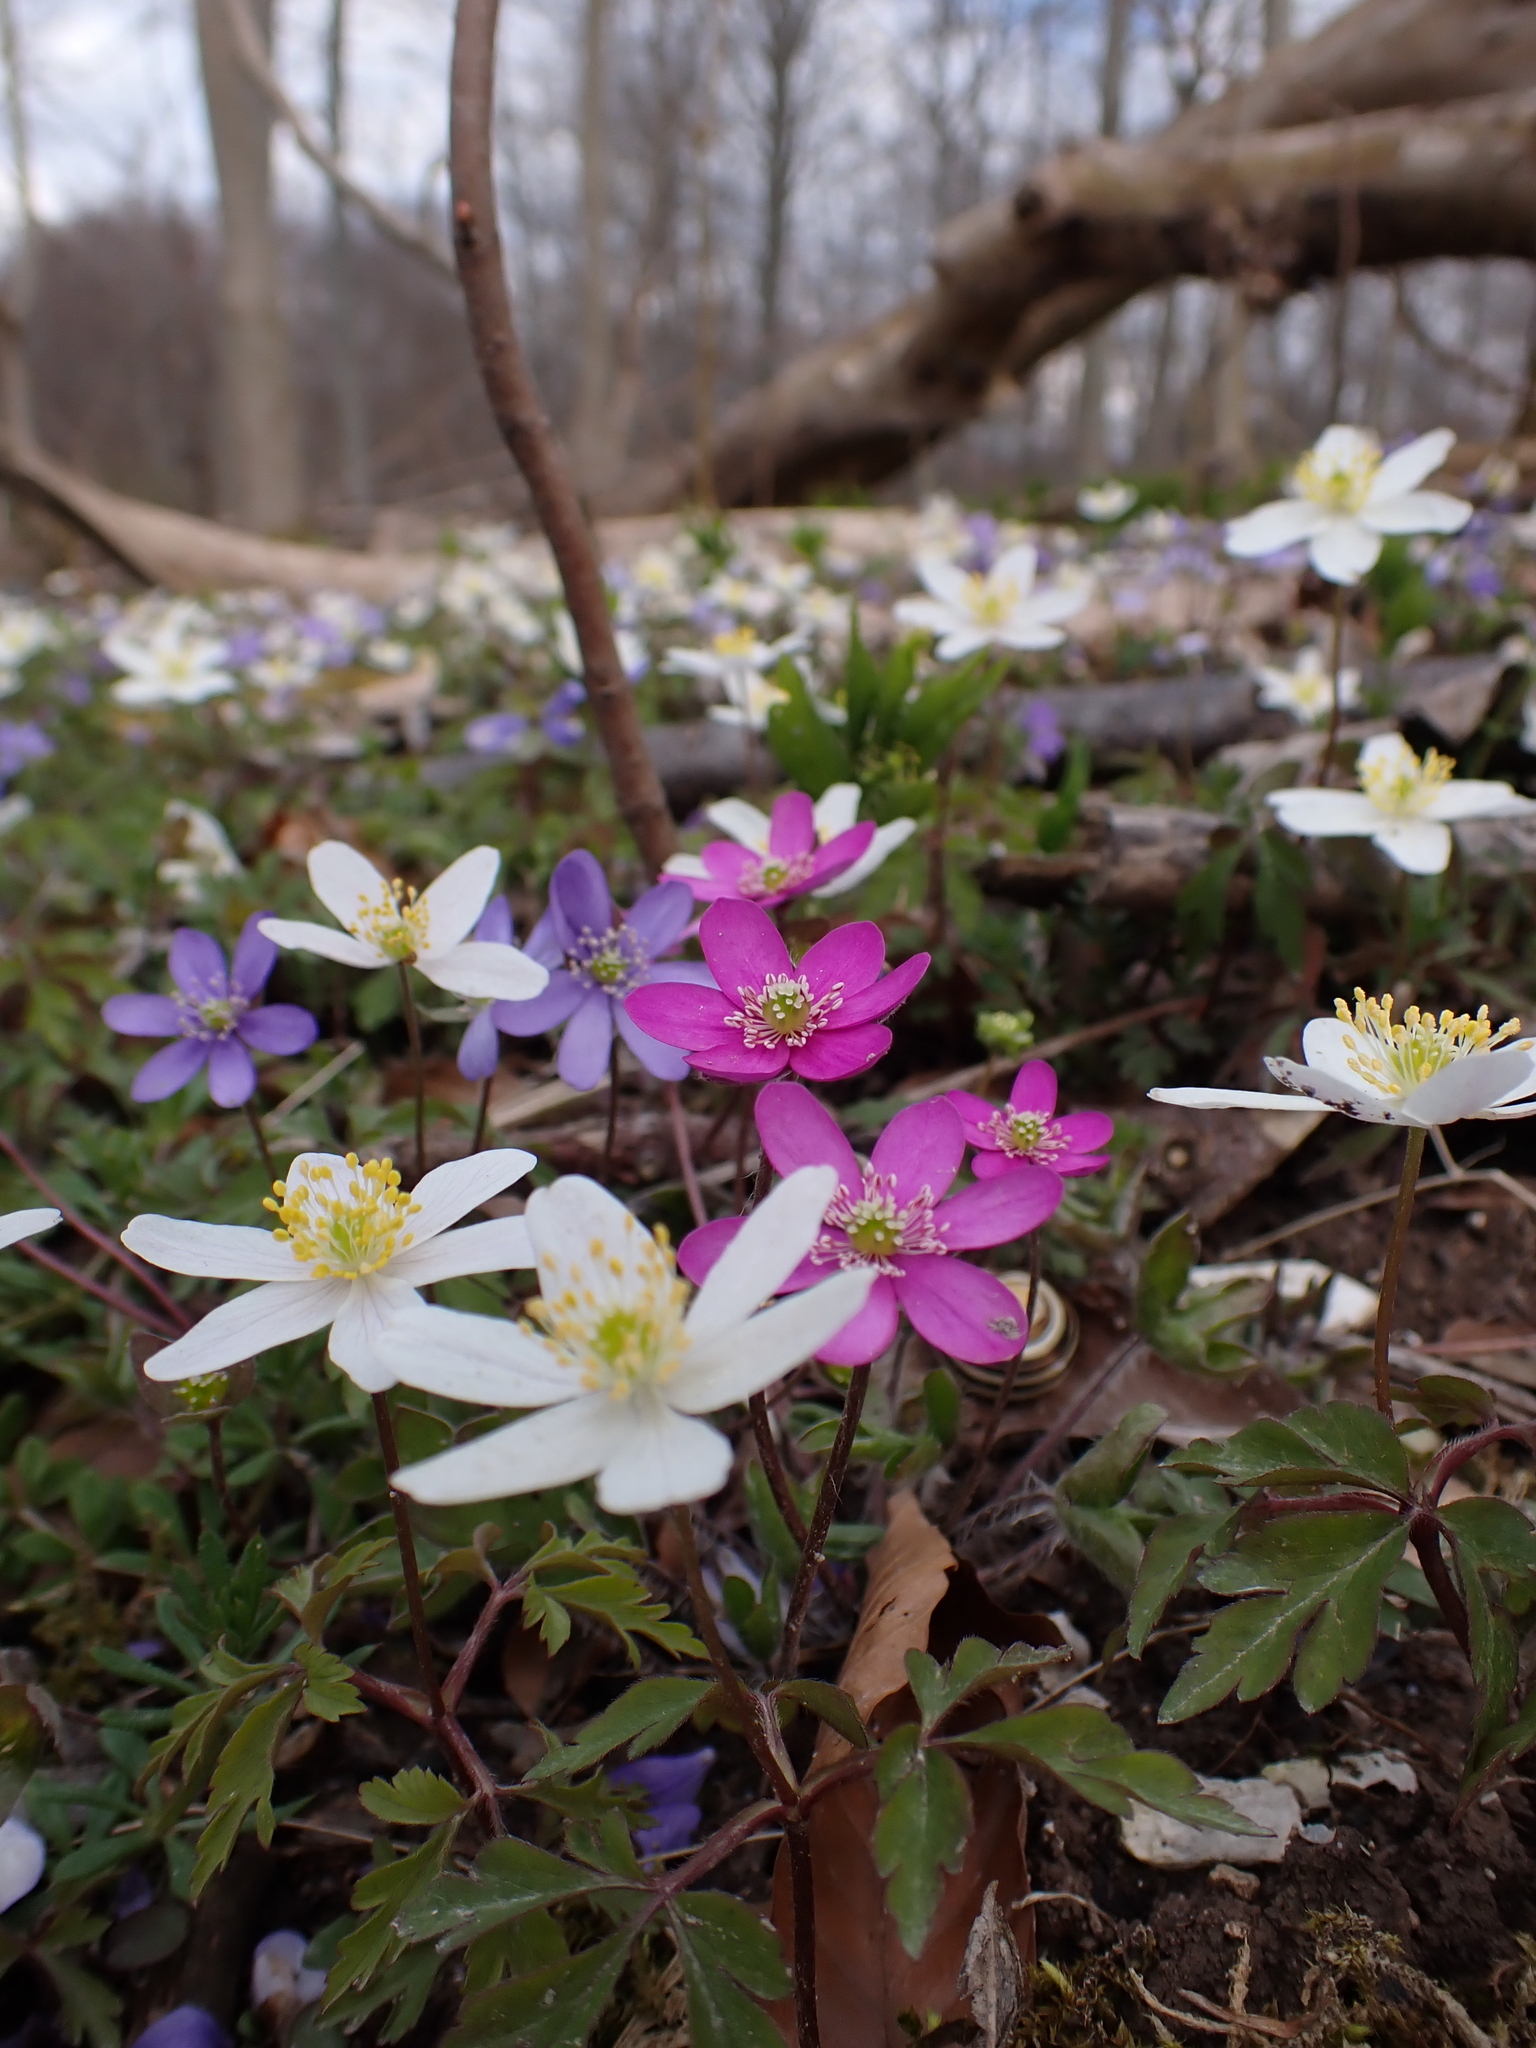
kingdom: Plantae
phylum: Tracheophyta
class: Magnoliopsida
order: Ranunculales
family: Ranunculaceae
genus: Hepatica
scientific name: Hepatica nobilis
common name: Liverleaf
